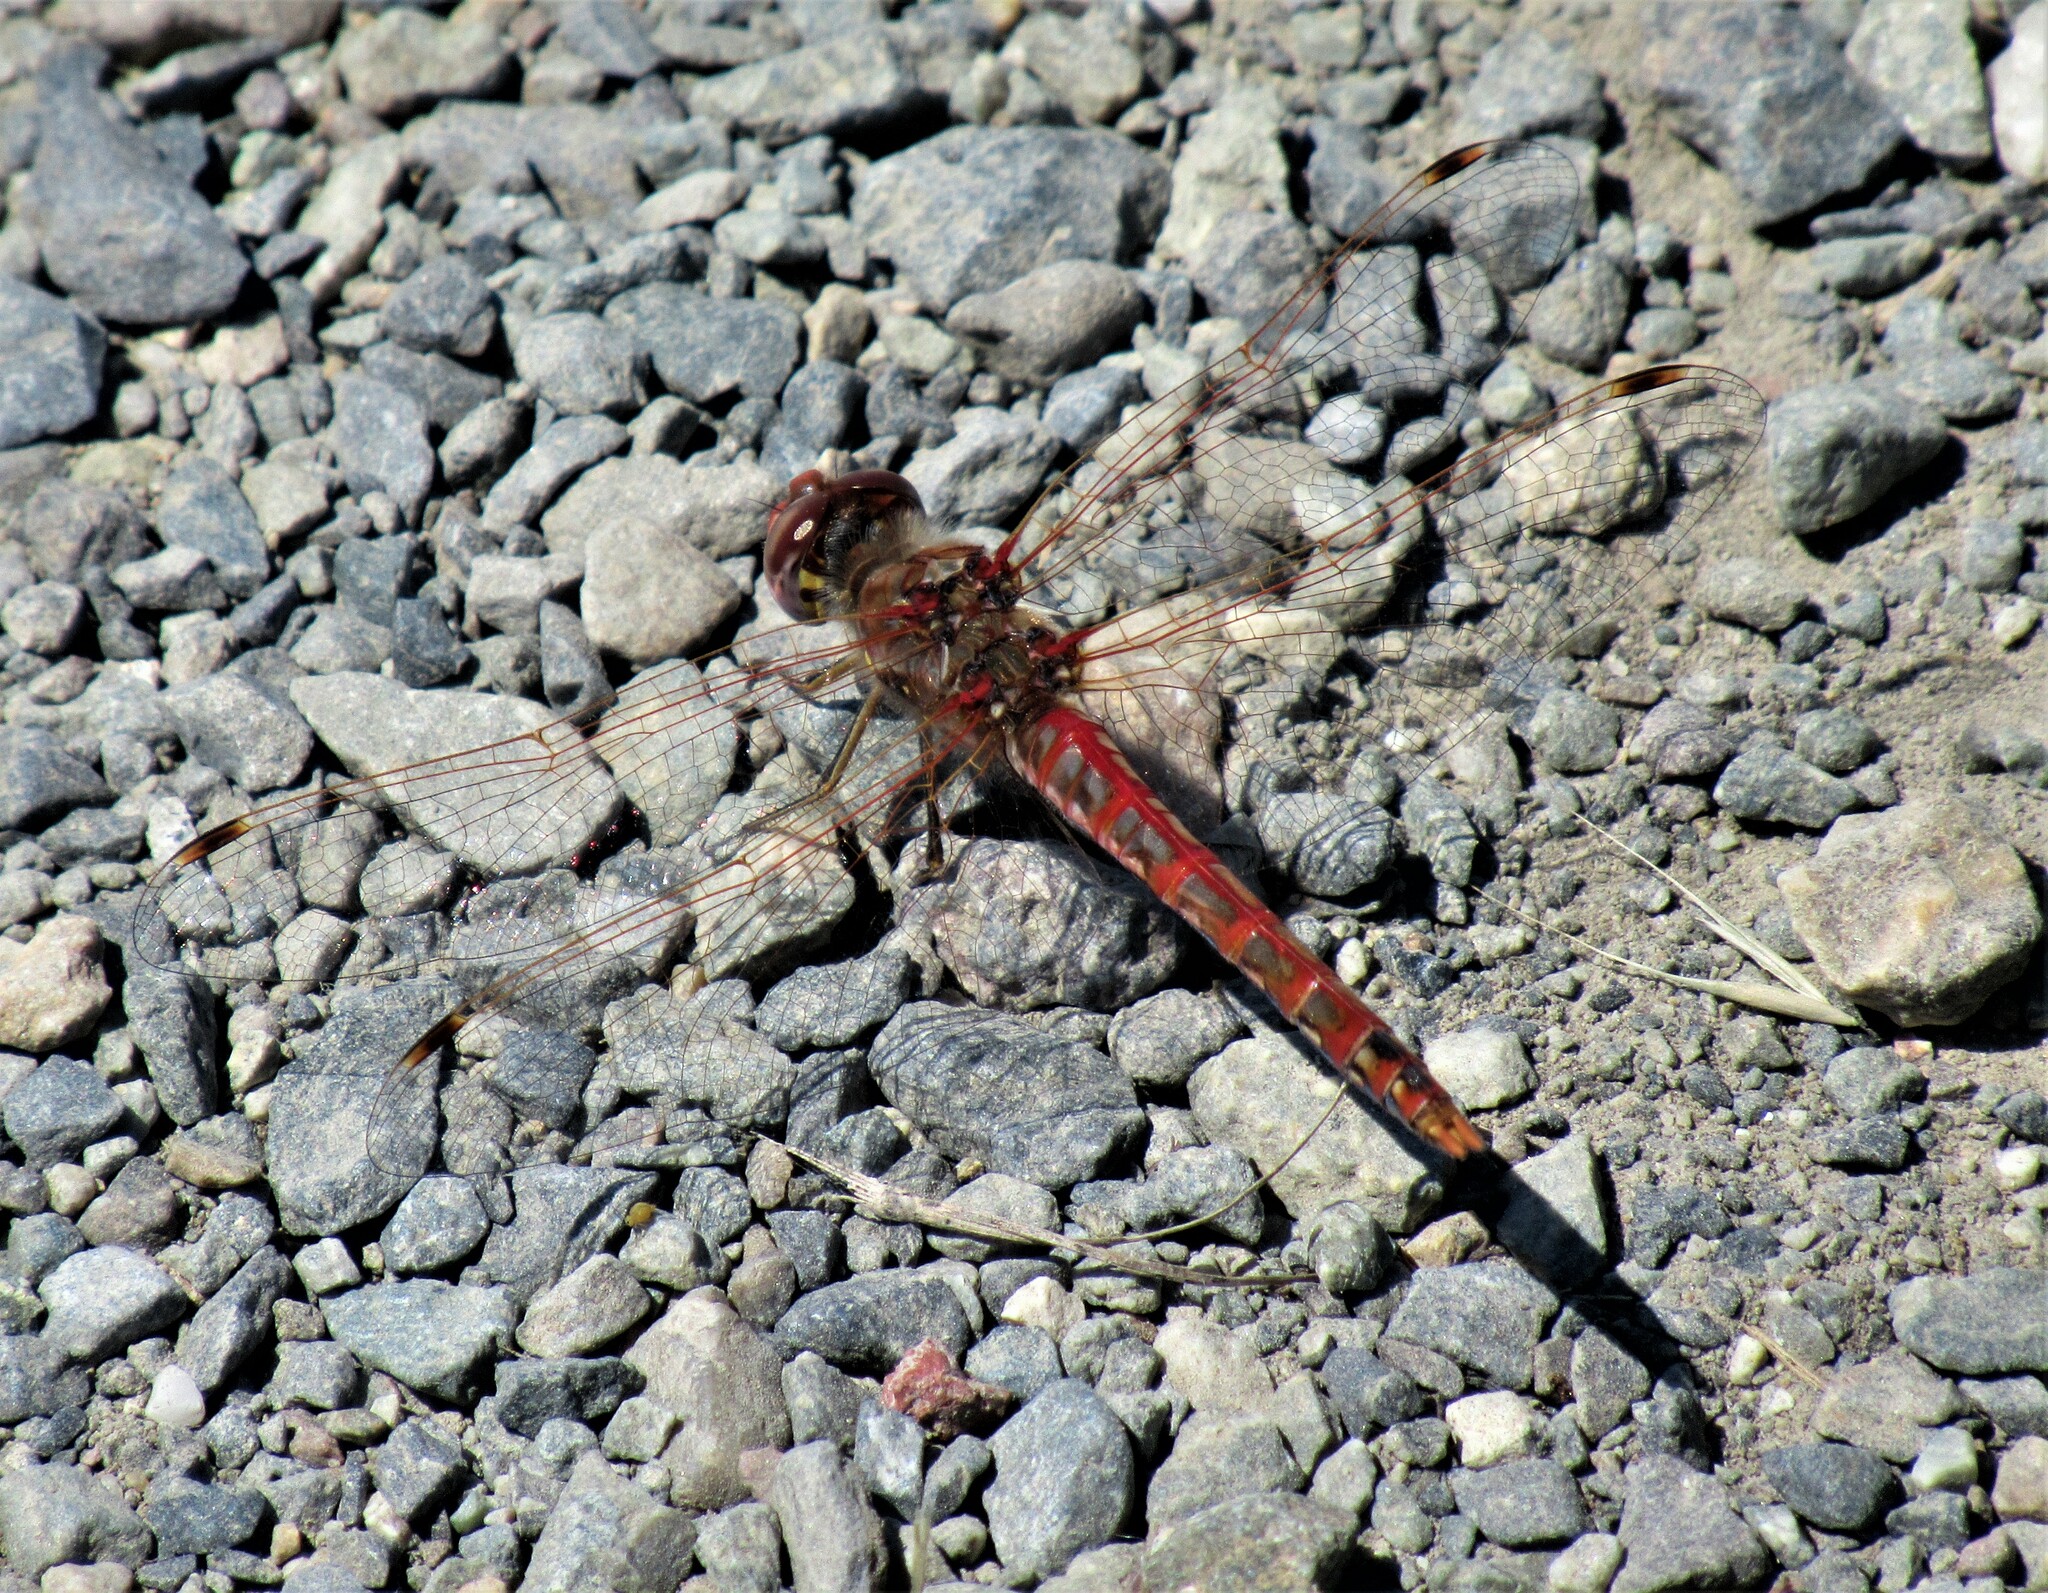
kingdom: Animalia
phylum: Arthropoda
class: Insecta
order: Odonata
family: Libellulidae
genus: Sympetrum
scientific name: Sympetrum corruptum
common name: Variegated meadowhawk
